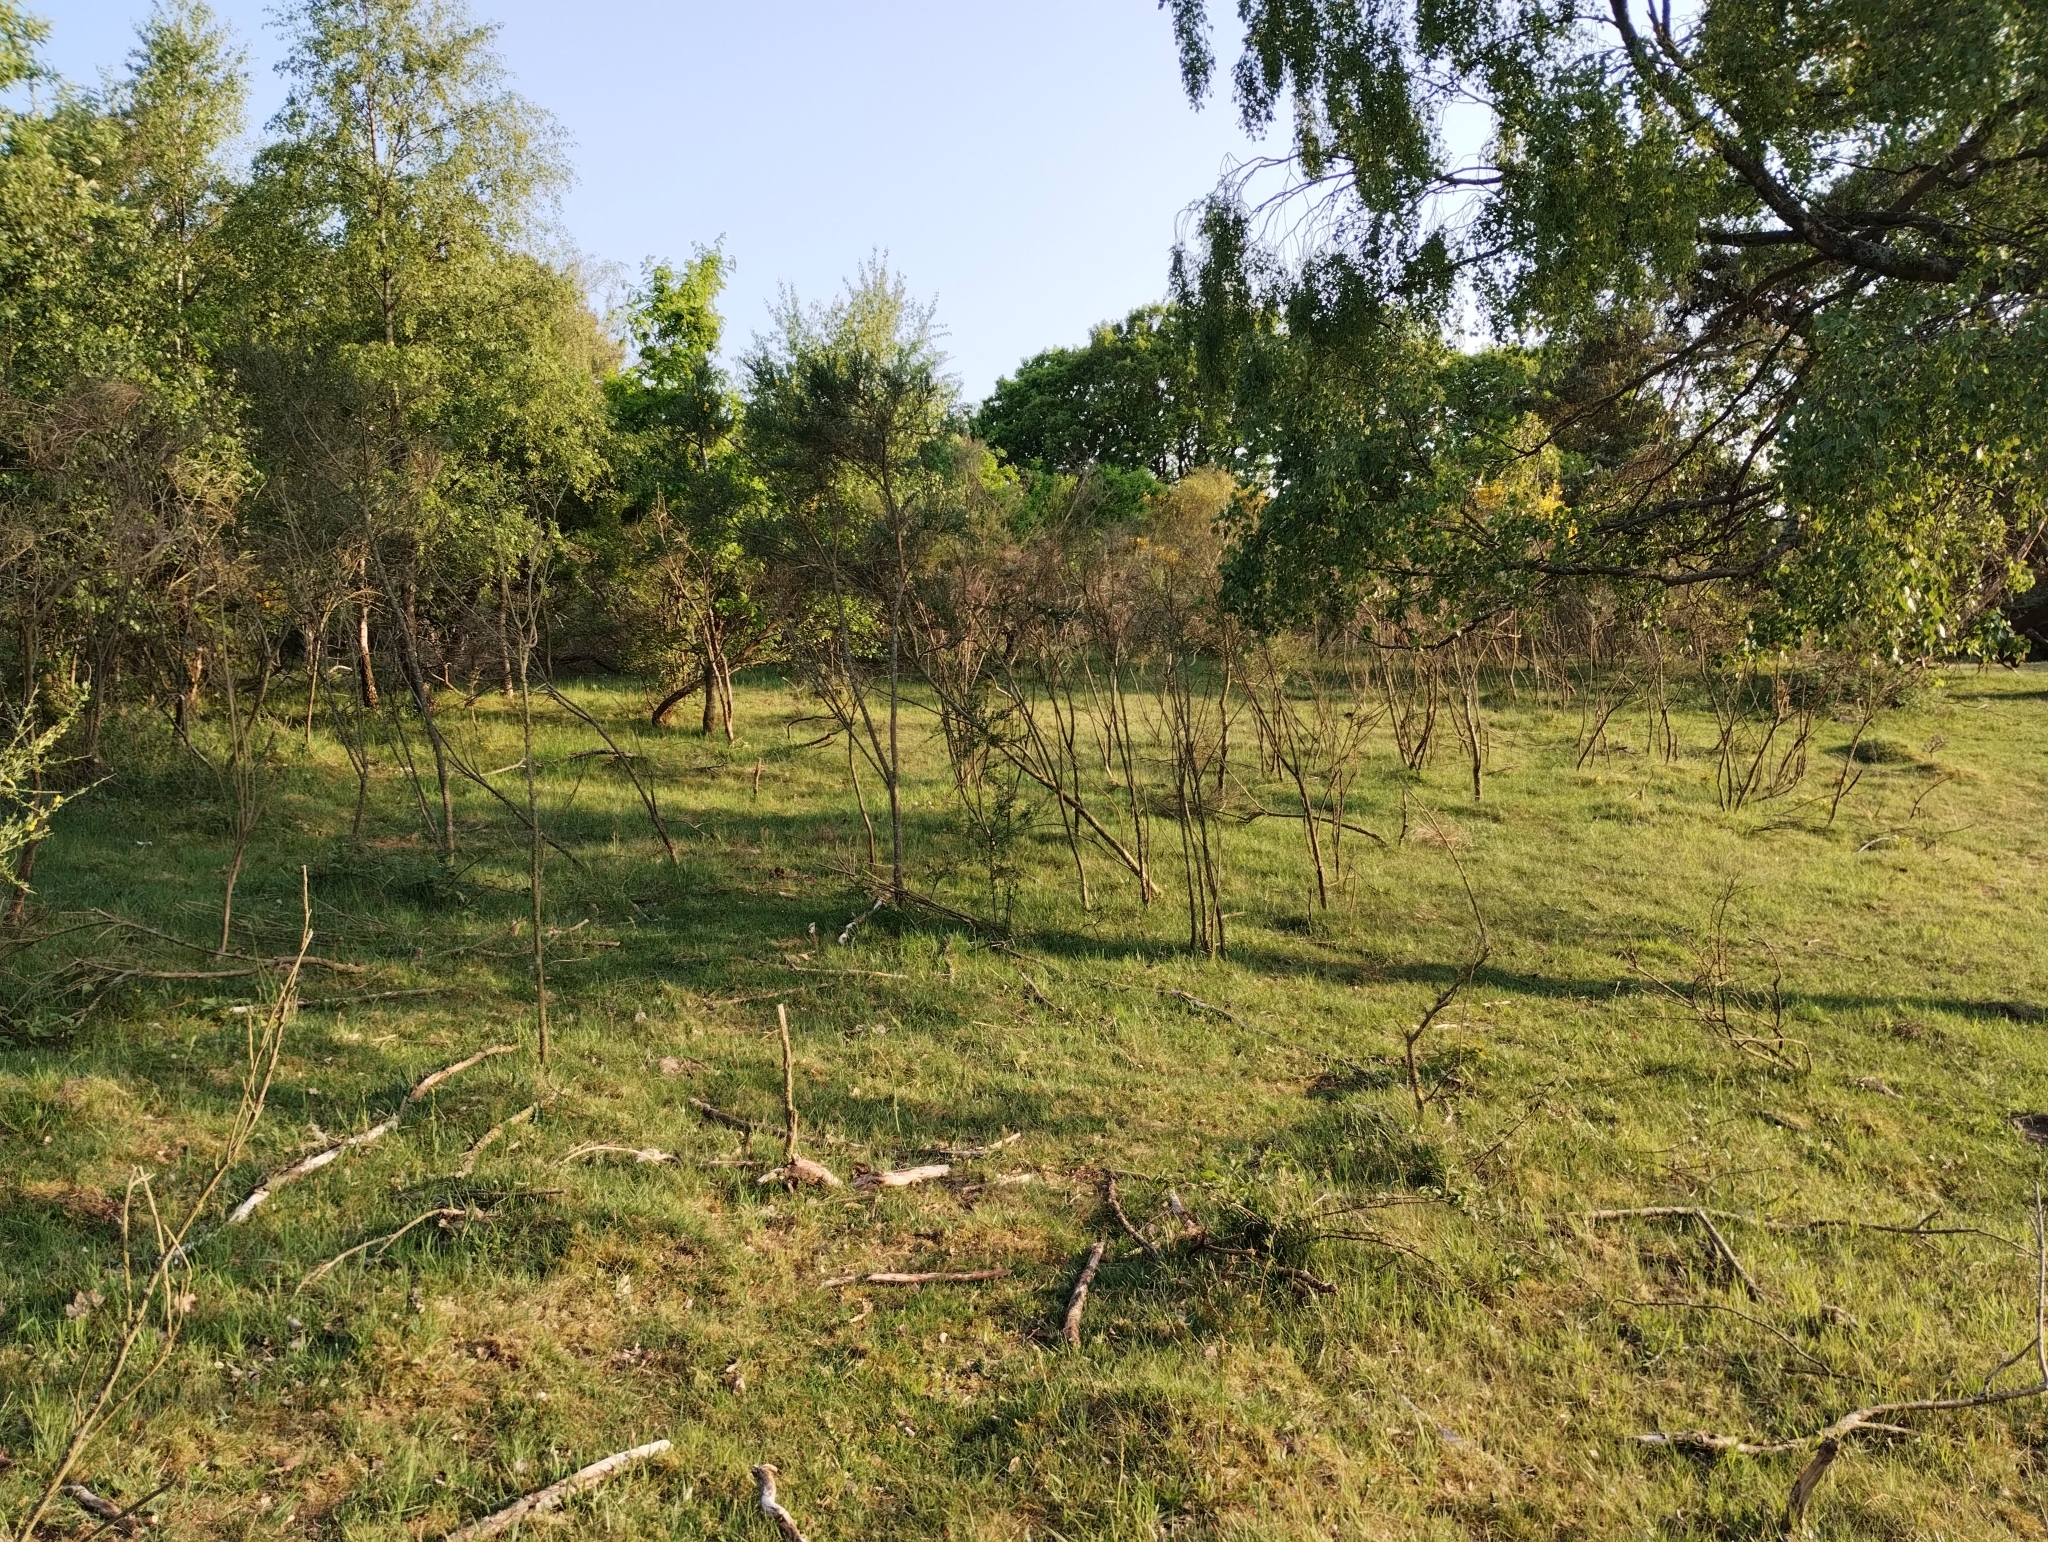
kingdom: Plantae
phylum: Tracheophyta
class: Magnoliopsida
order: Fabales
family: Fabaceae
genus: Cytisus
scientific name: Cytisus scoparius
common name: Scotch broom
